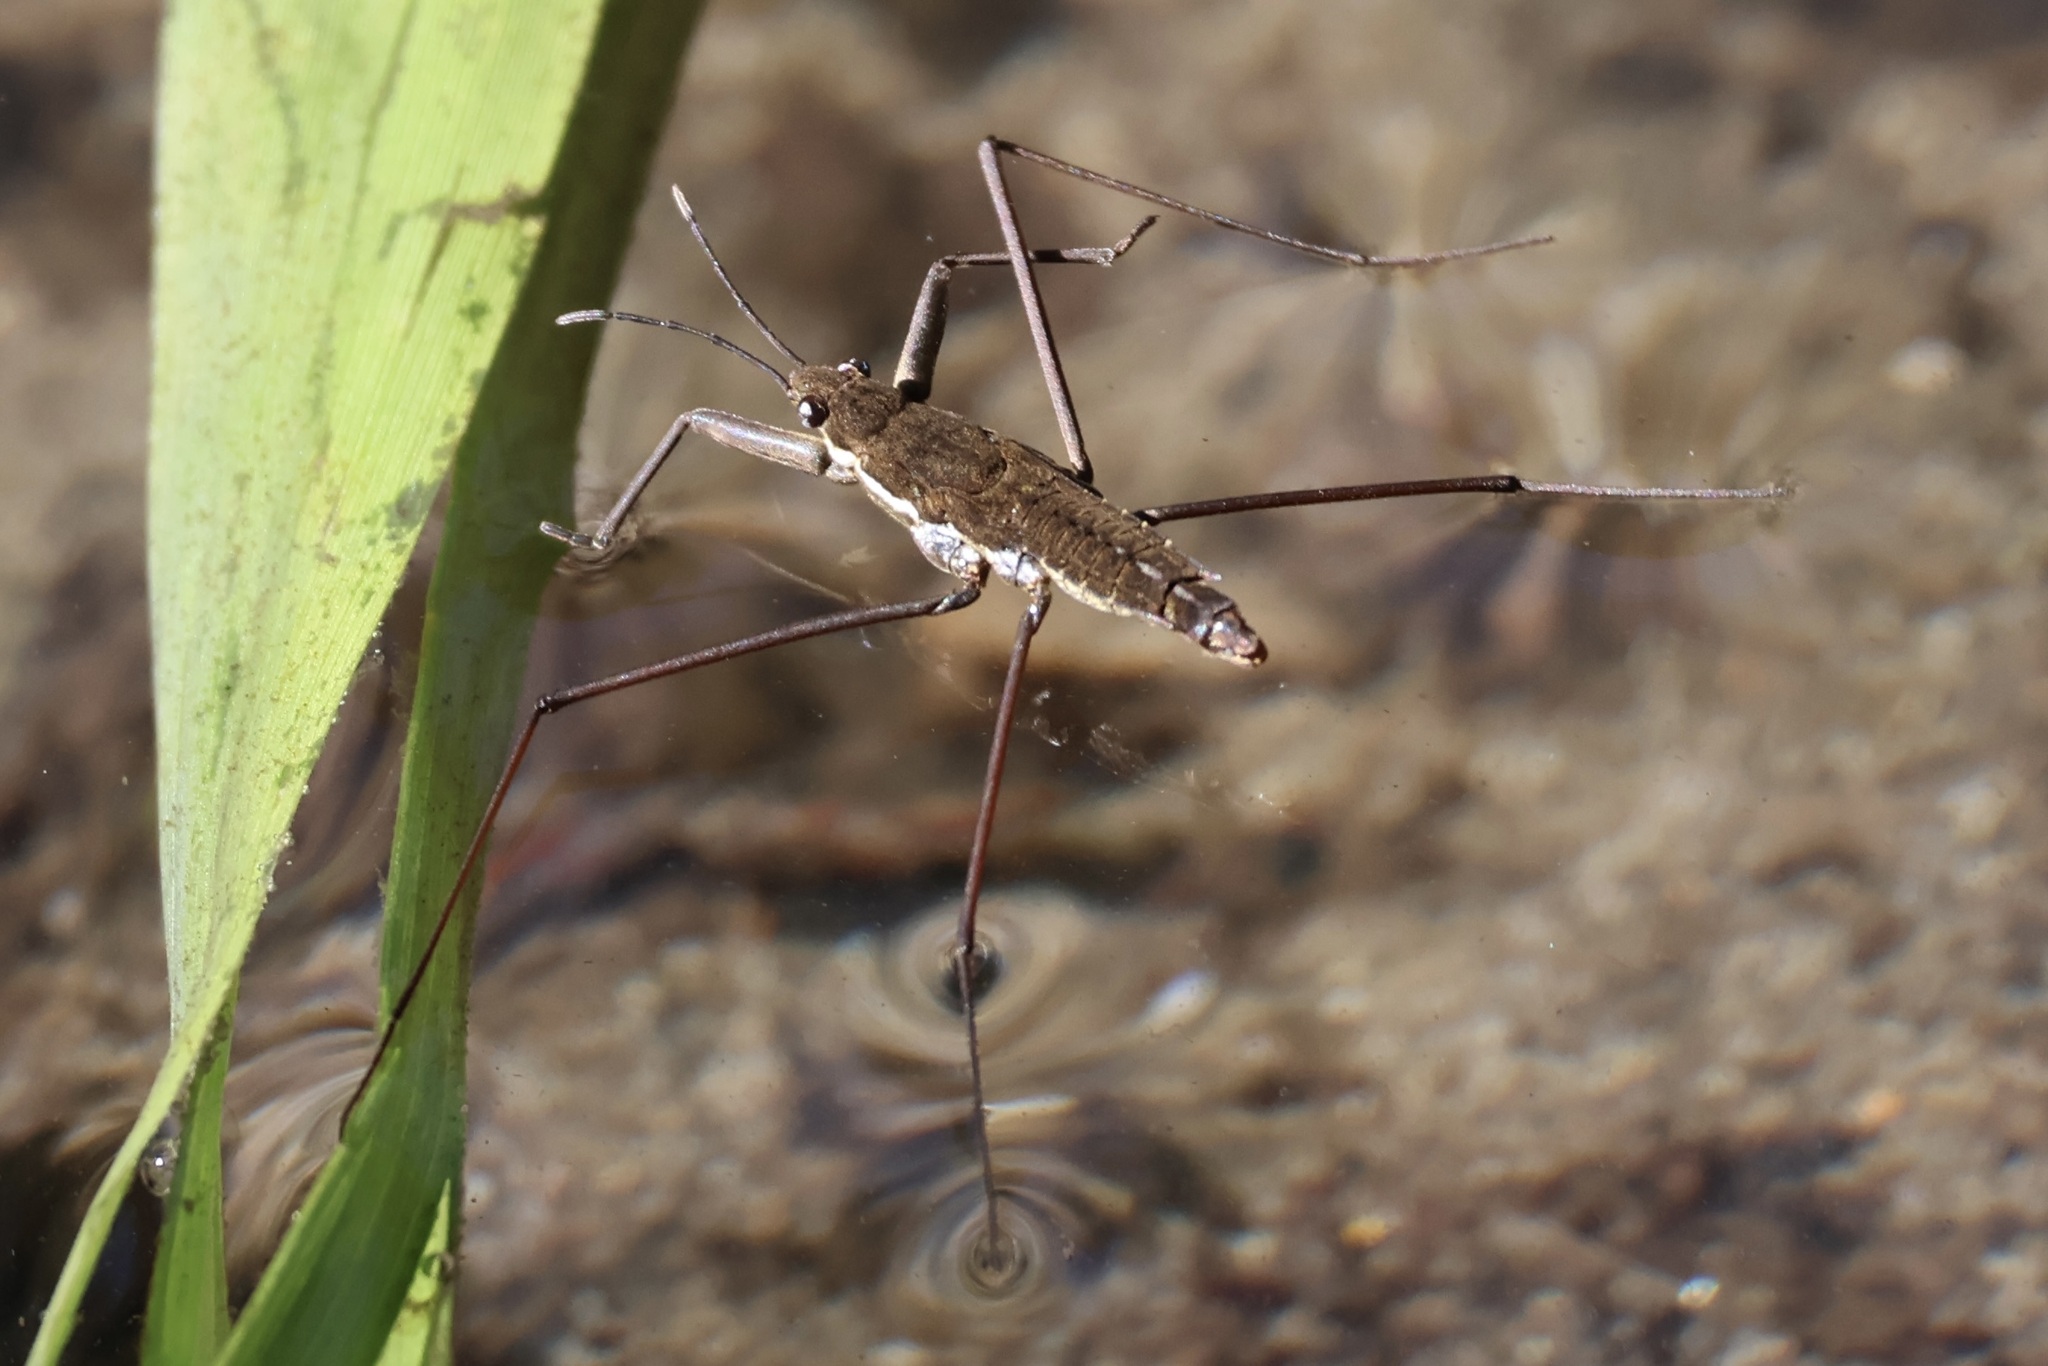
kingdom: Animalia
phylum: Arthropoda
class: Insecta
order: Hemiptera
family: Gerridae
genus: Aquarius
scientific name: Aquarius remigis
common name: Common water strider
